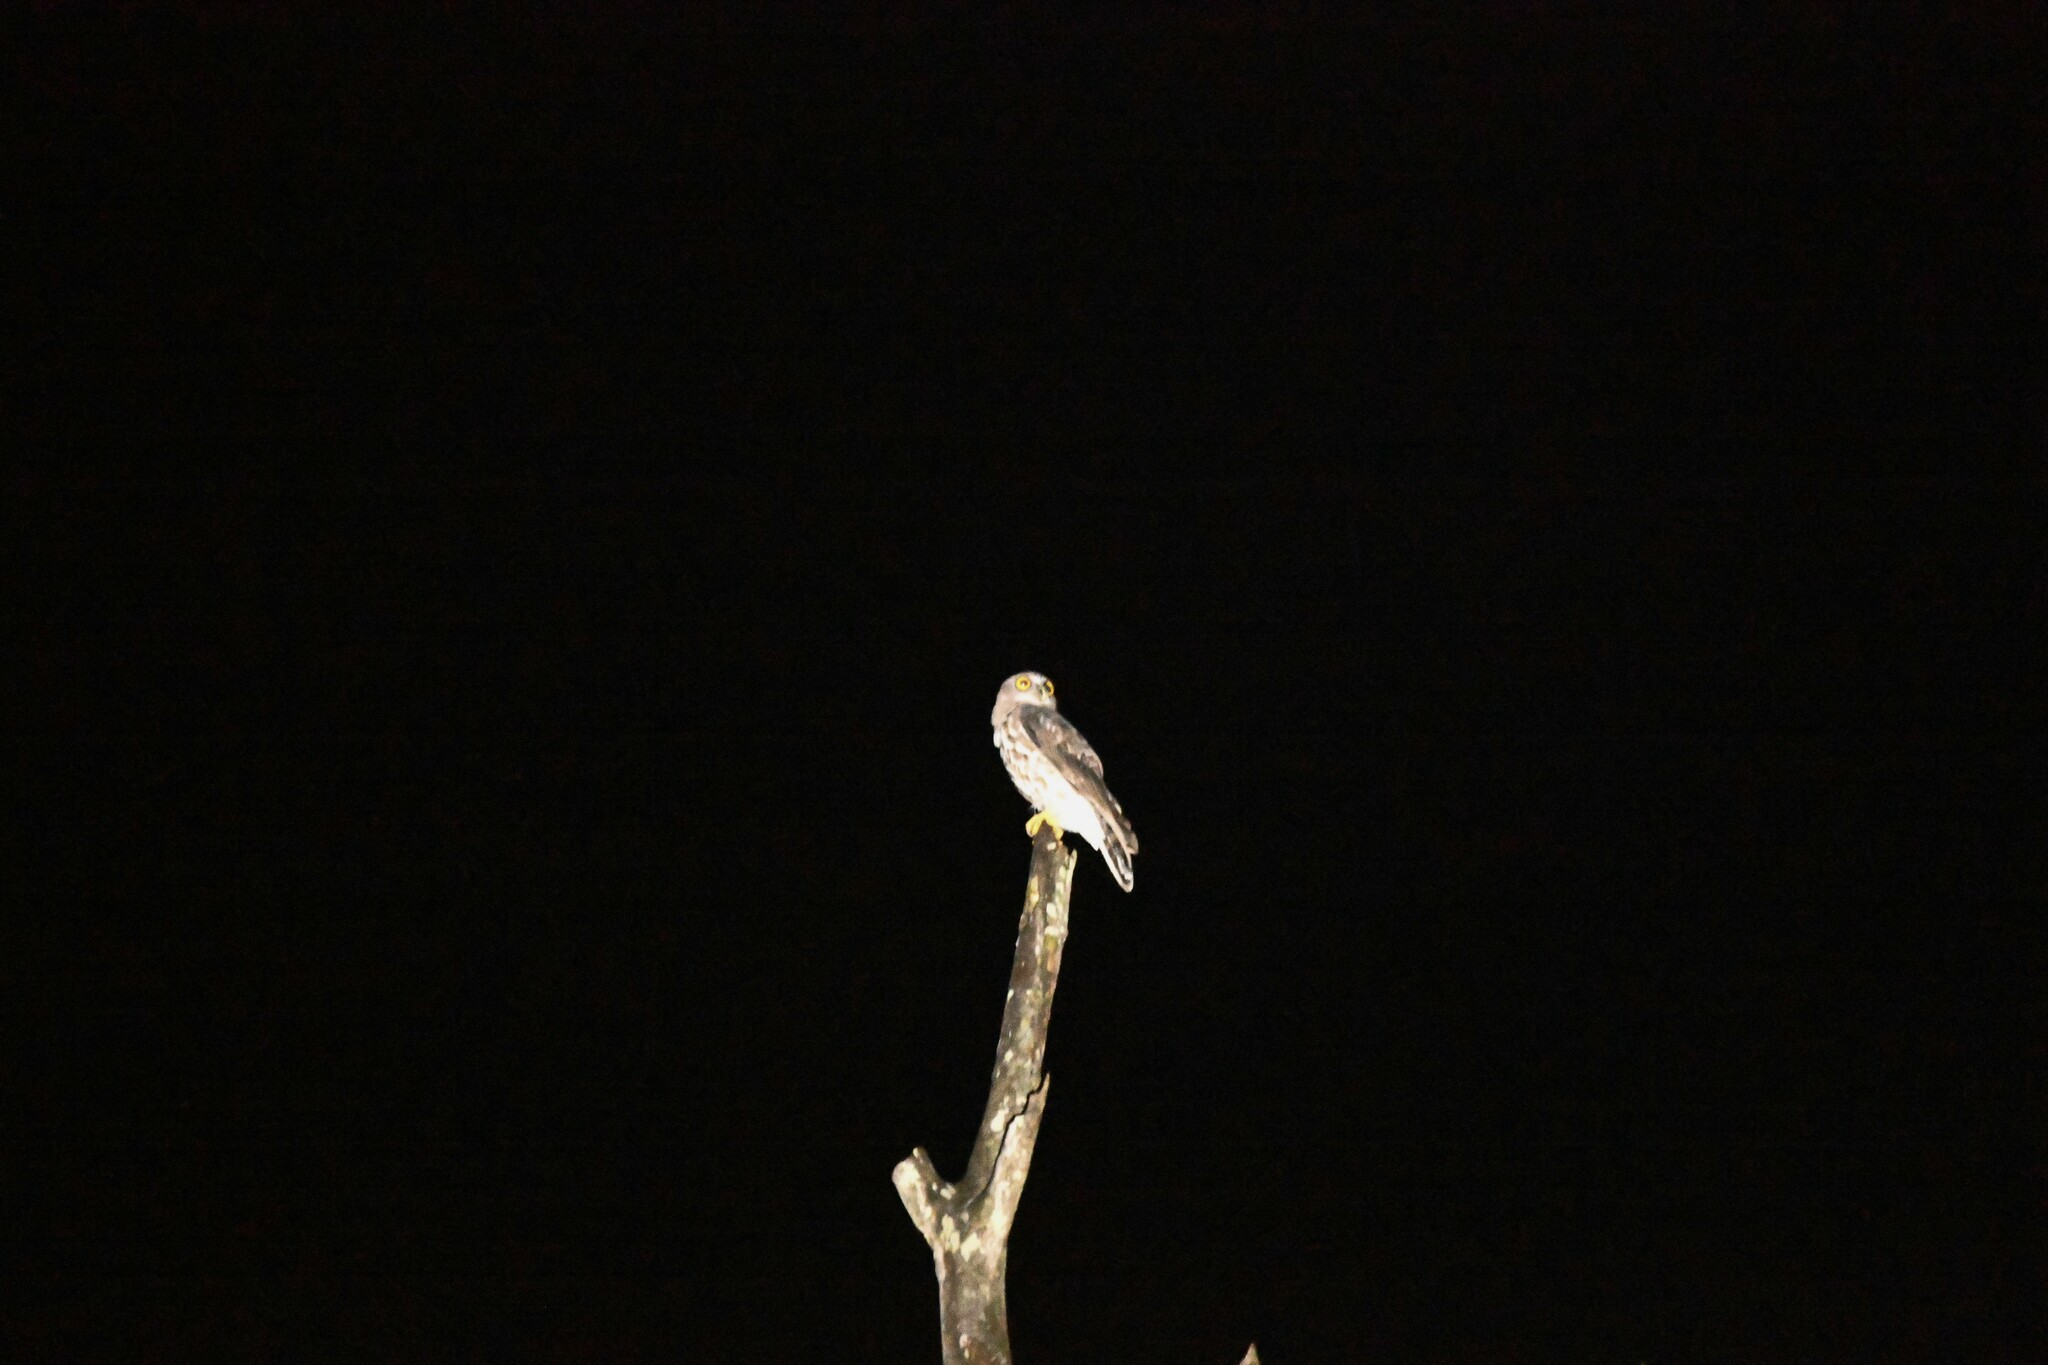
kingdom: Animalia
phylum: Chordata
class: Aves
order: Strigiformes
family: Strigidae
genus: Ninox
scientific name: Ninox scutulata
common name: Brown hawk-owl
